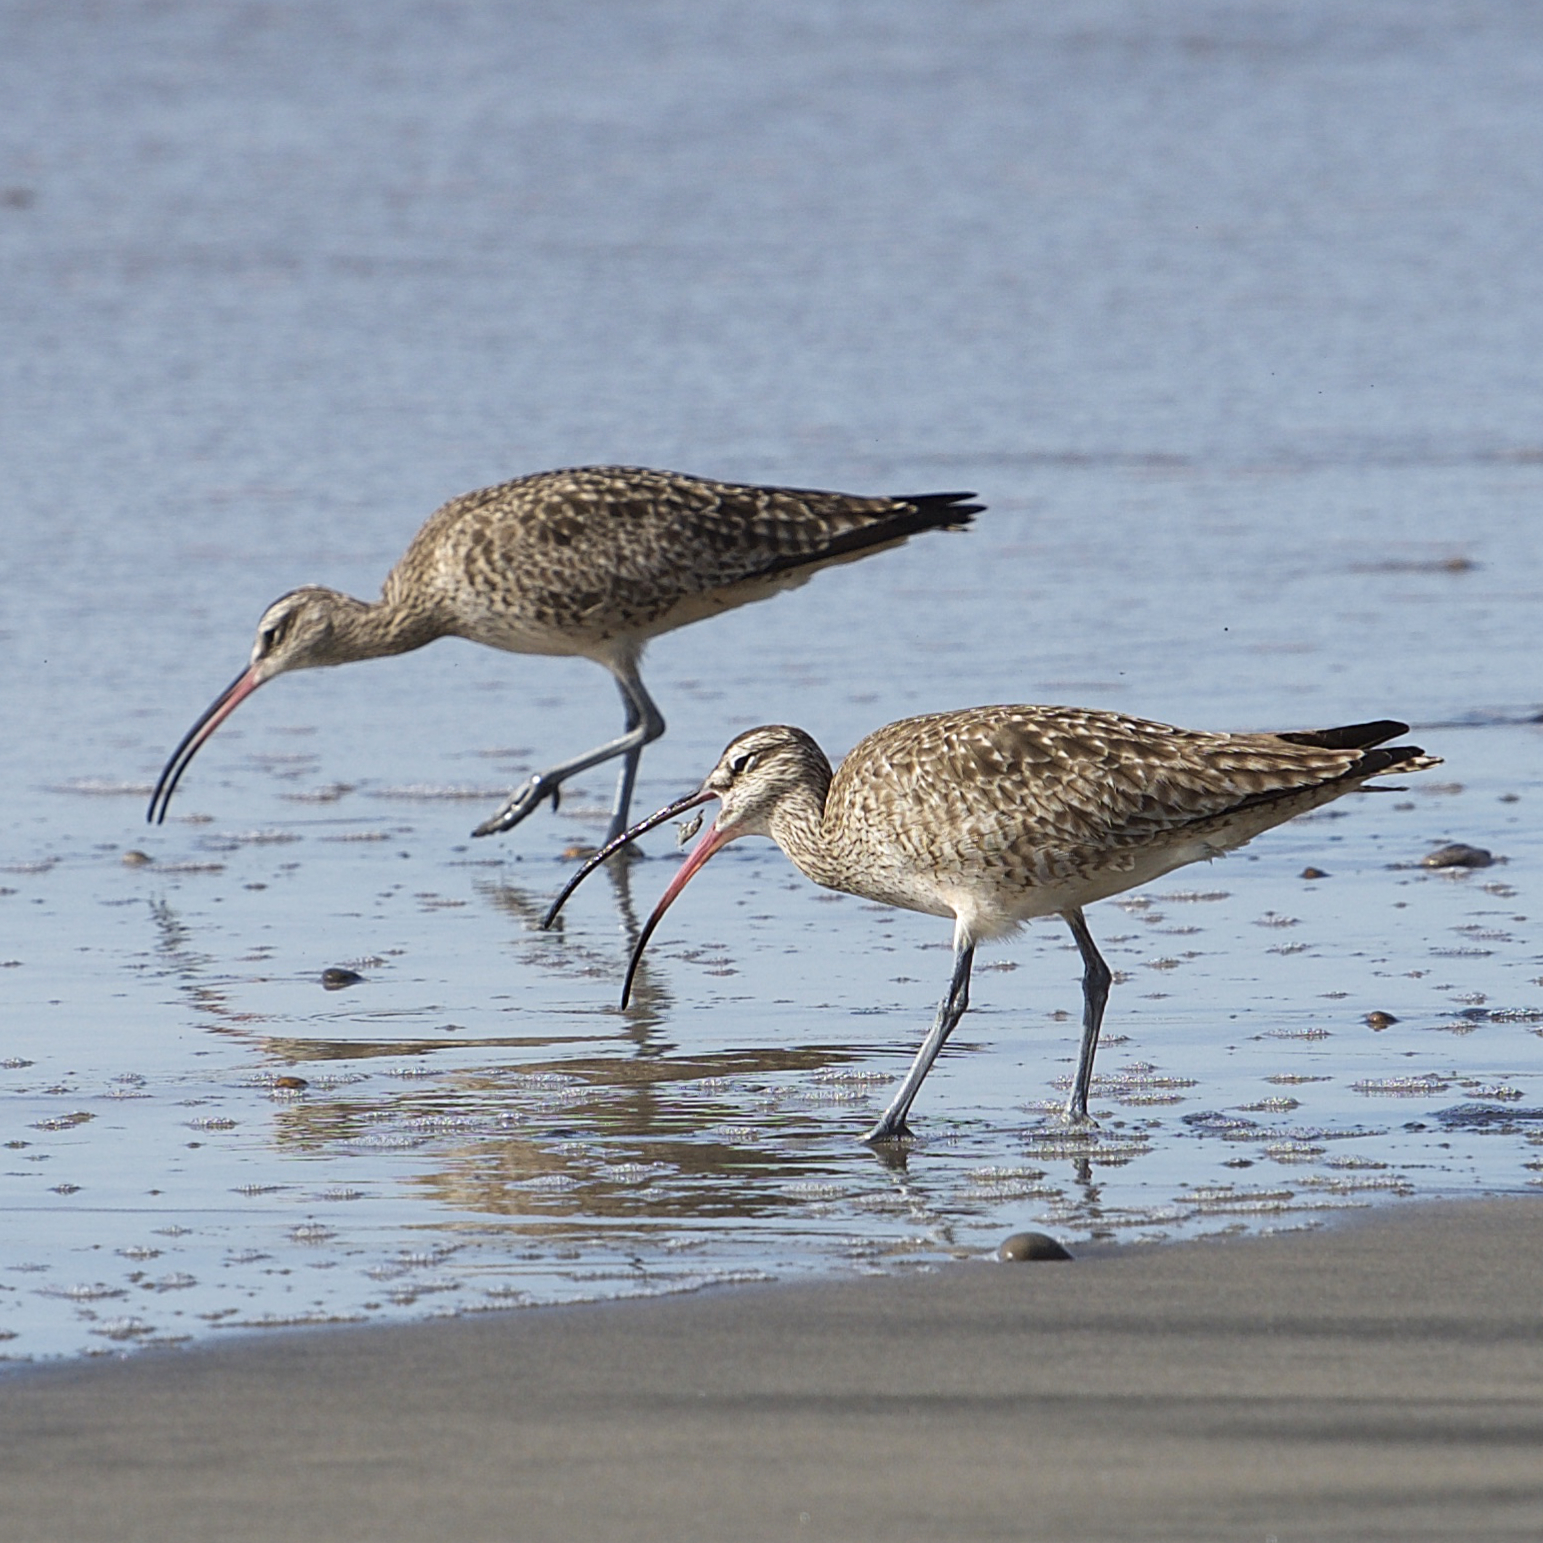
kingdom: Animalia
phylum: Chordata
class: Aves
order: Charadriiformes
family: Scolopacidae
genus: Numenius
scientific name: Numenius phaeopus
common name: Whimbrel
